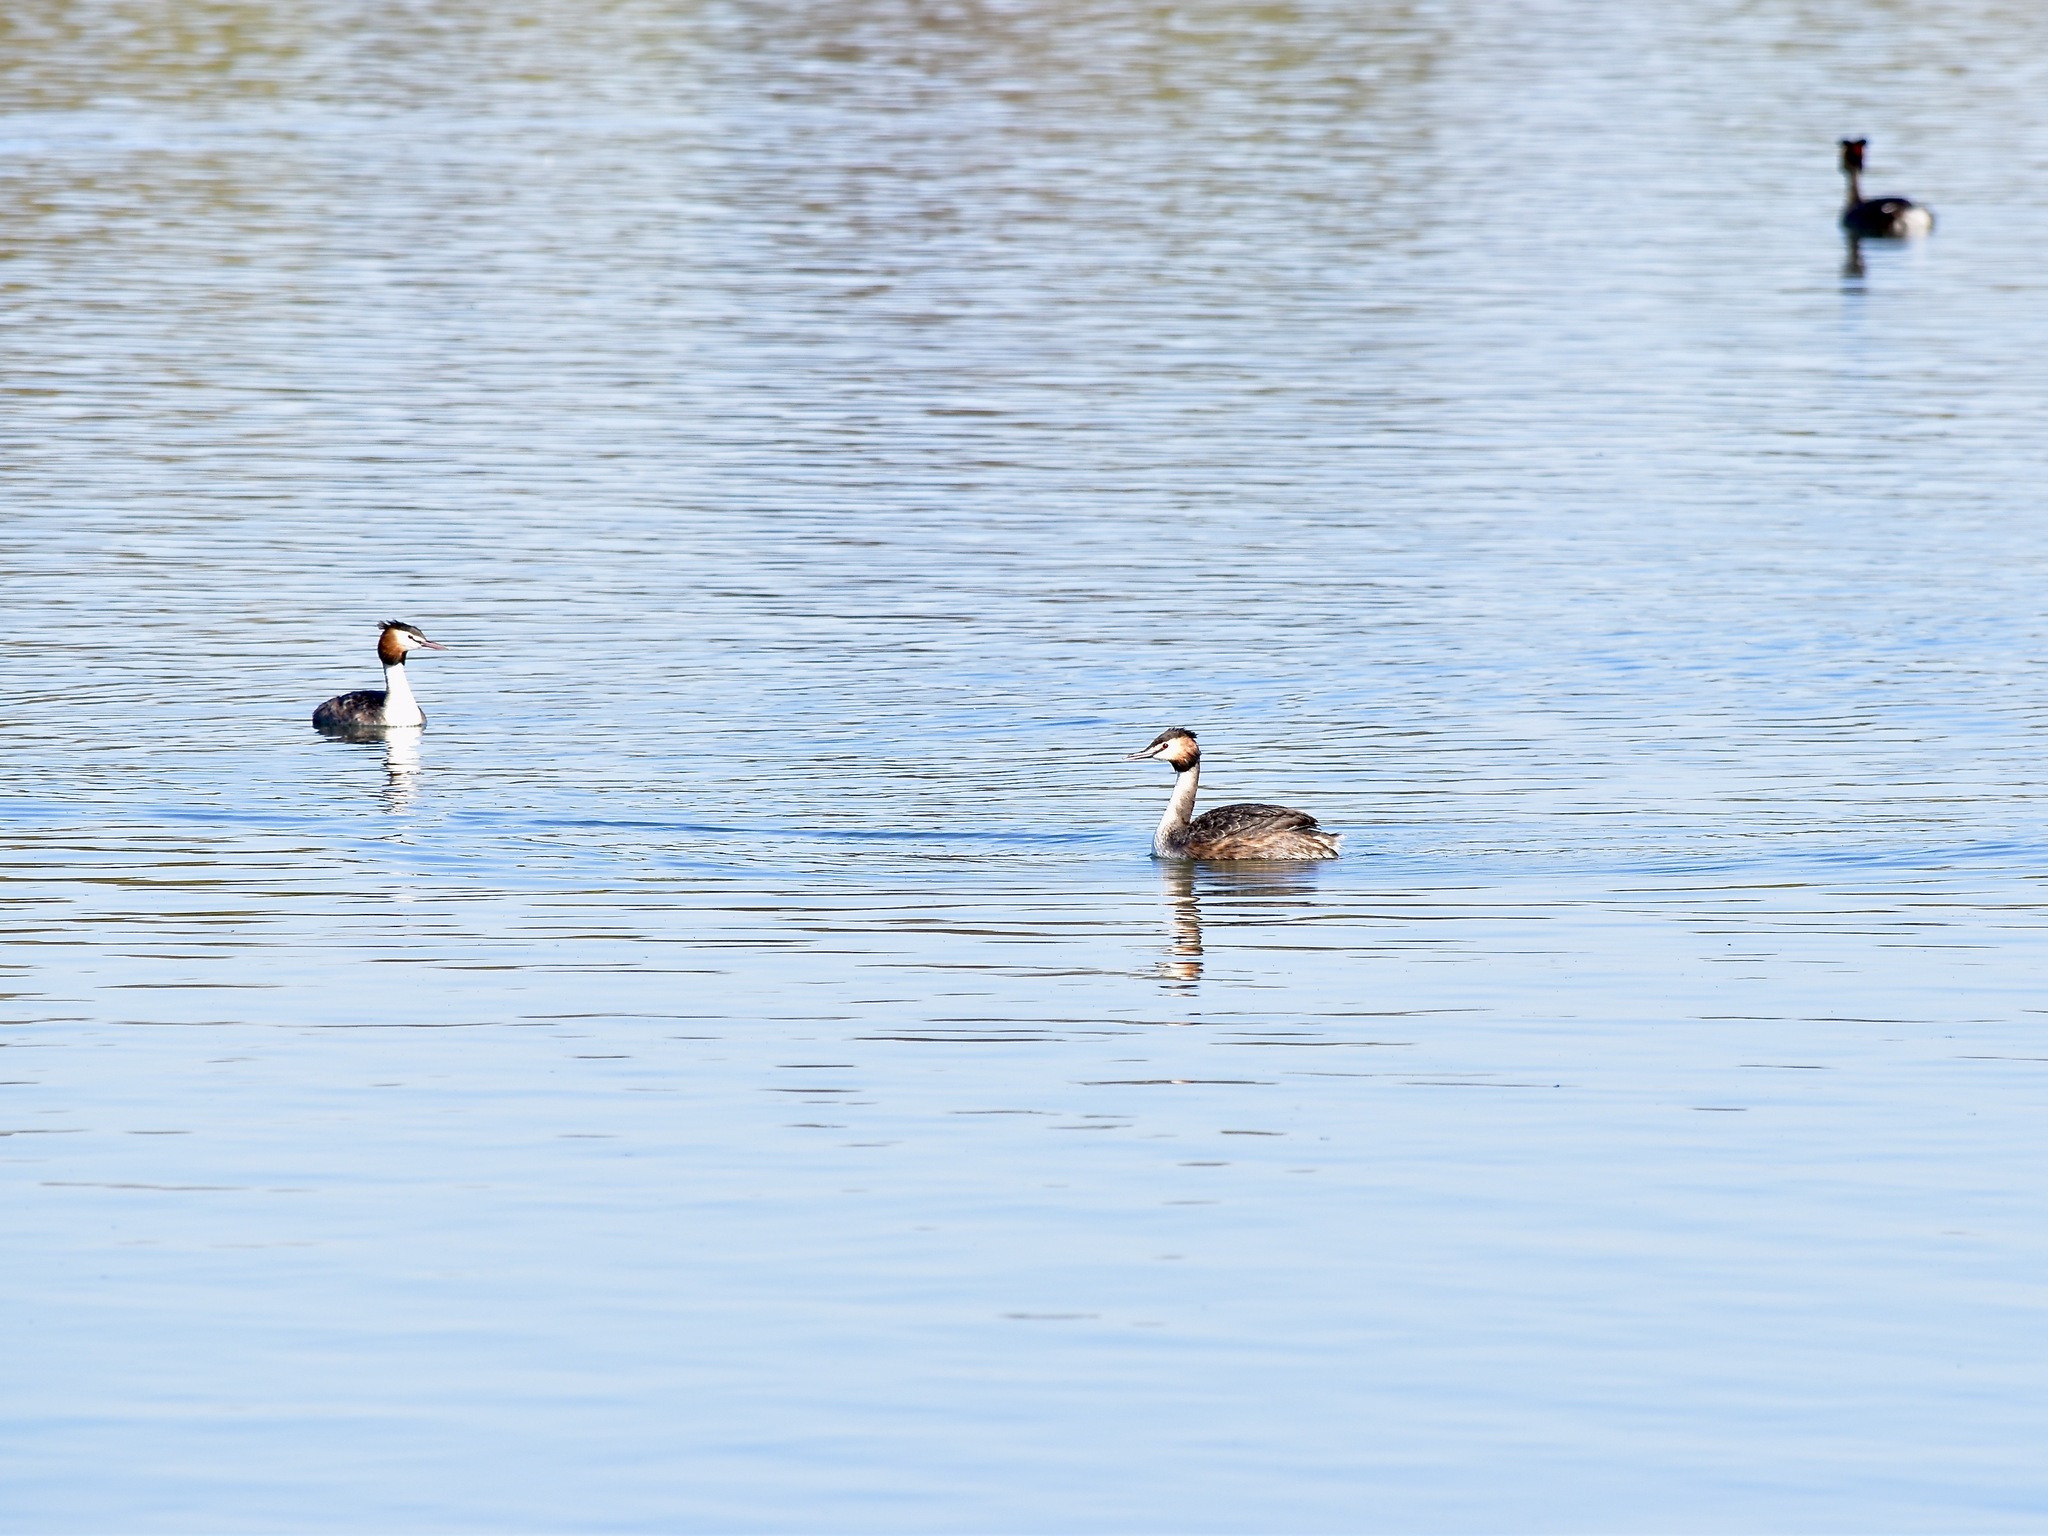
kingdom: Animalia
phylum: Chordata
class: Aves
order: Podicipediformes
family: Podicipedidae
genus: Podiceps
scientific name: Podiceps cristatus
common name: Great crested grebe
